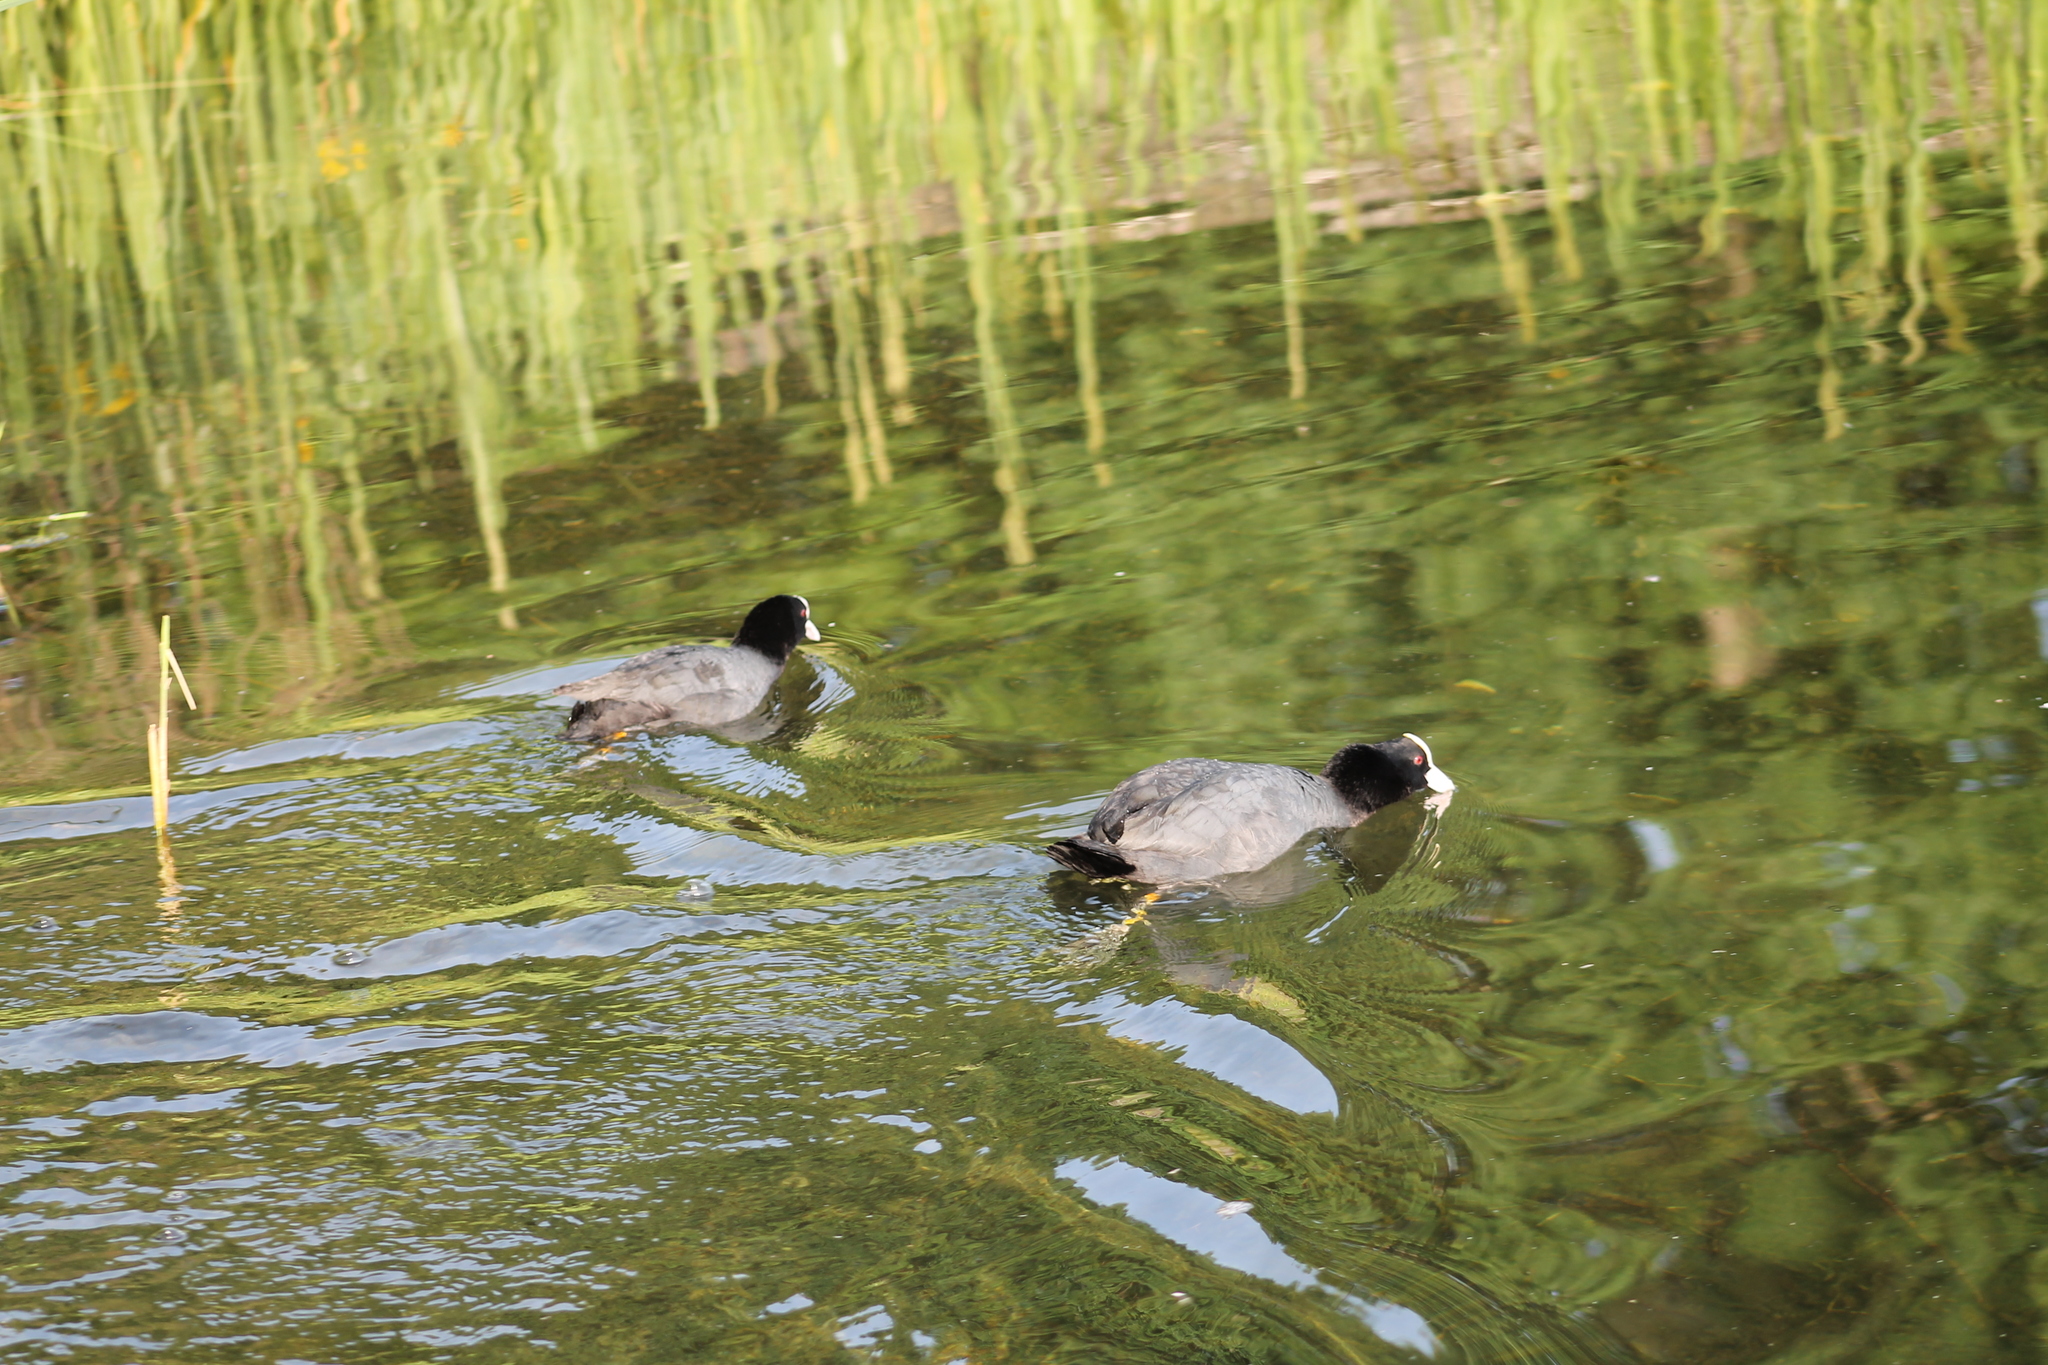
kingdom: Animalia
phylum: Chordata
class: Aves
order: Gruiformes
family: Rallidae
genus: Fulica
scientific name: Fulica atra
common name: Eurasian coot
